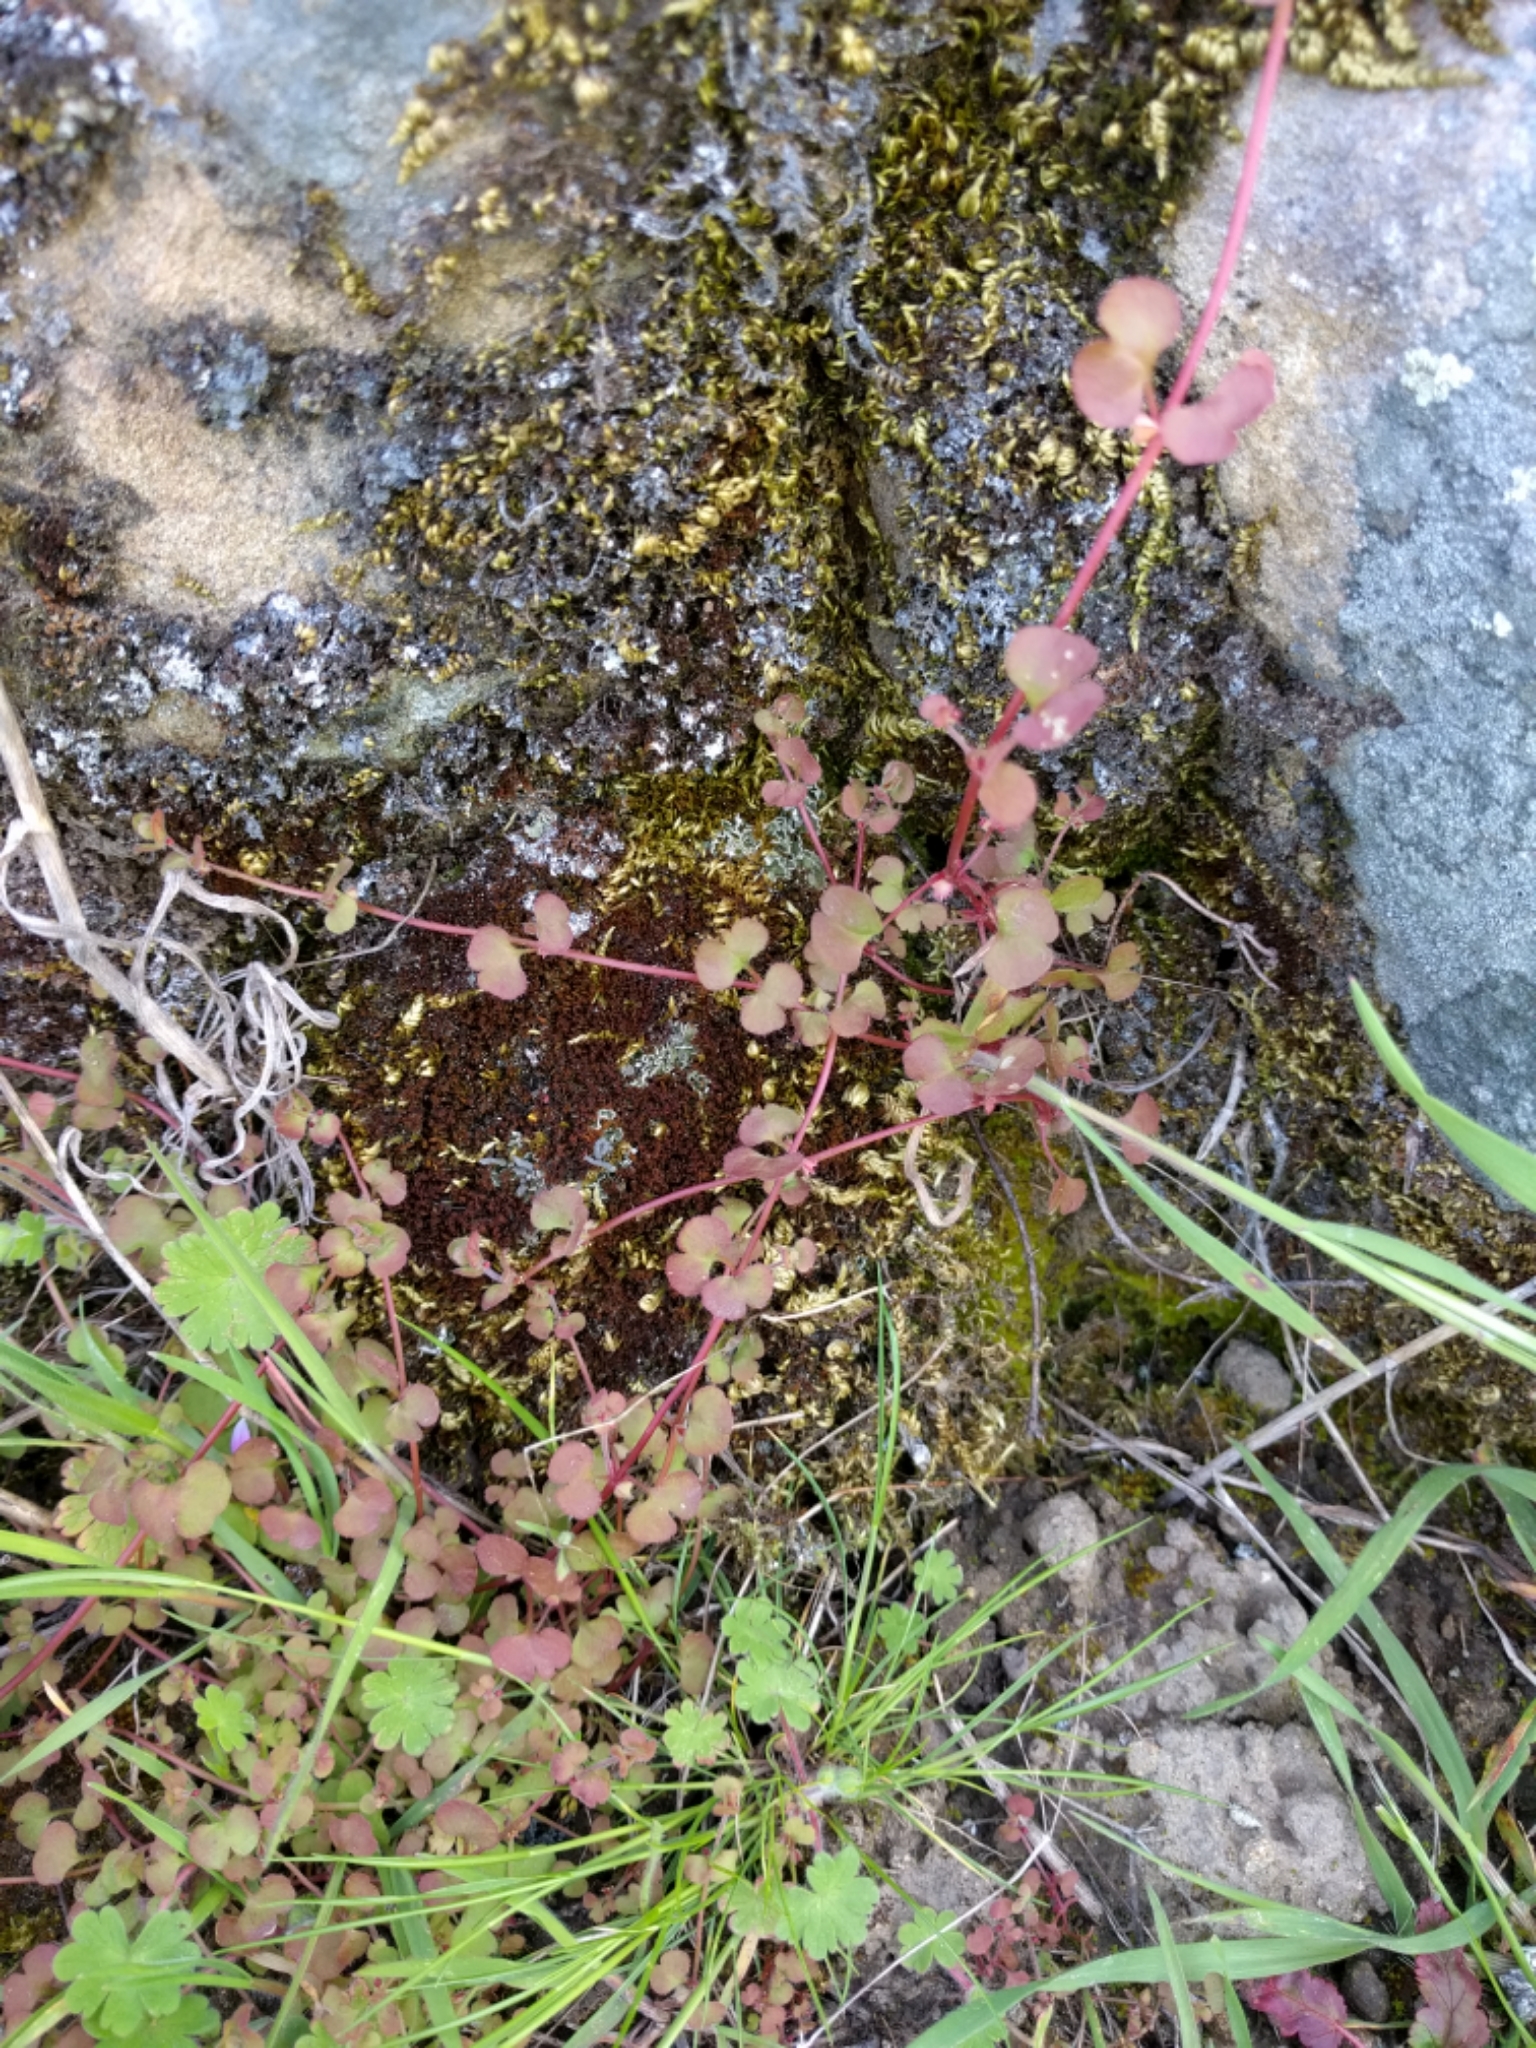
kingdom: Plantae
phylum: Tracheophyta
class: Magnoliopsida
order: Caryophyllales
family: Polygonaceae
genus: Pterostegia
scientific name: Pterostegia drymarioides
